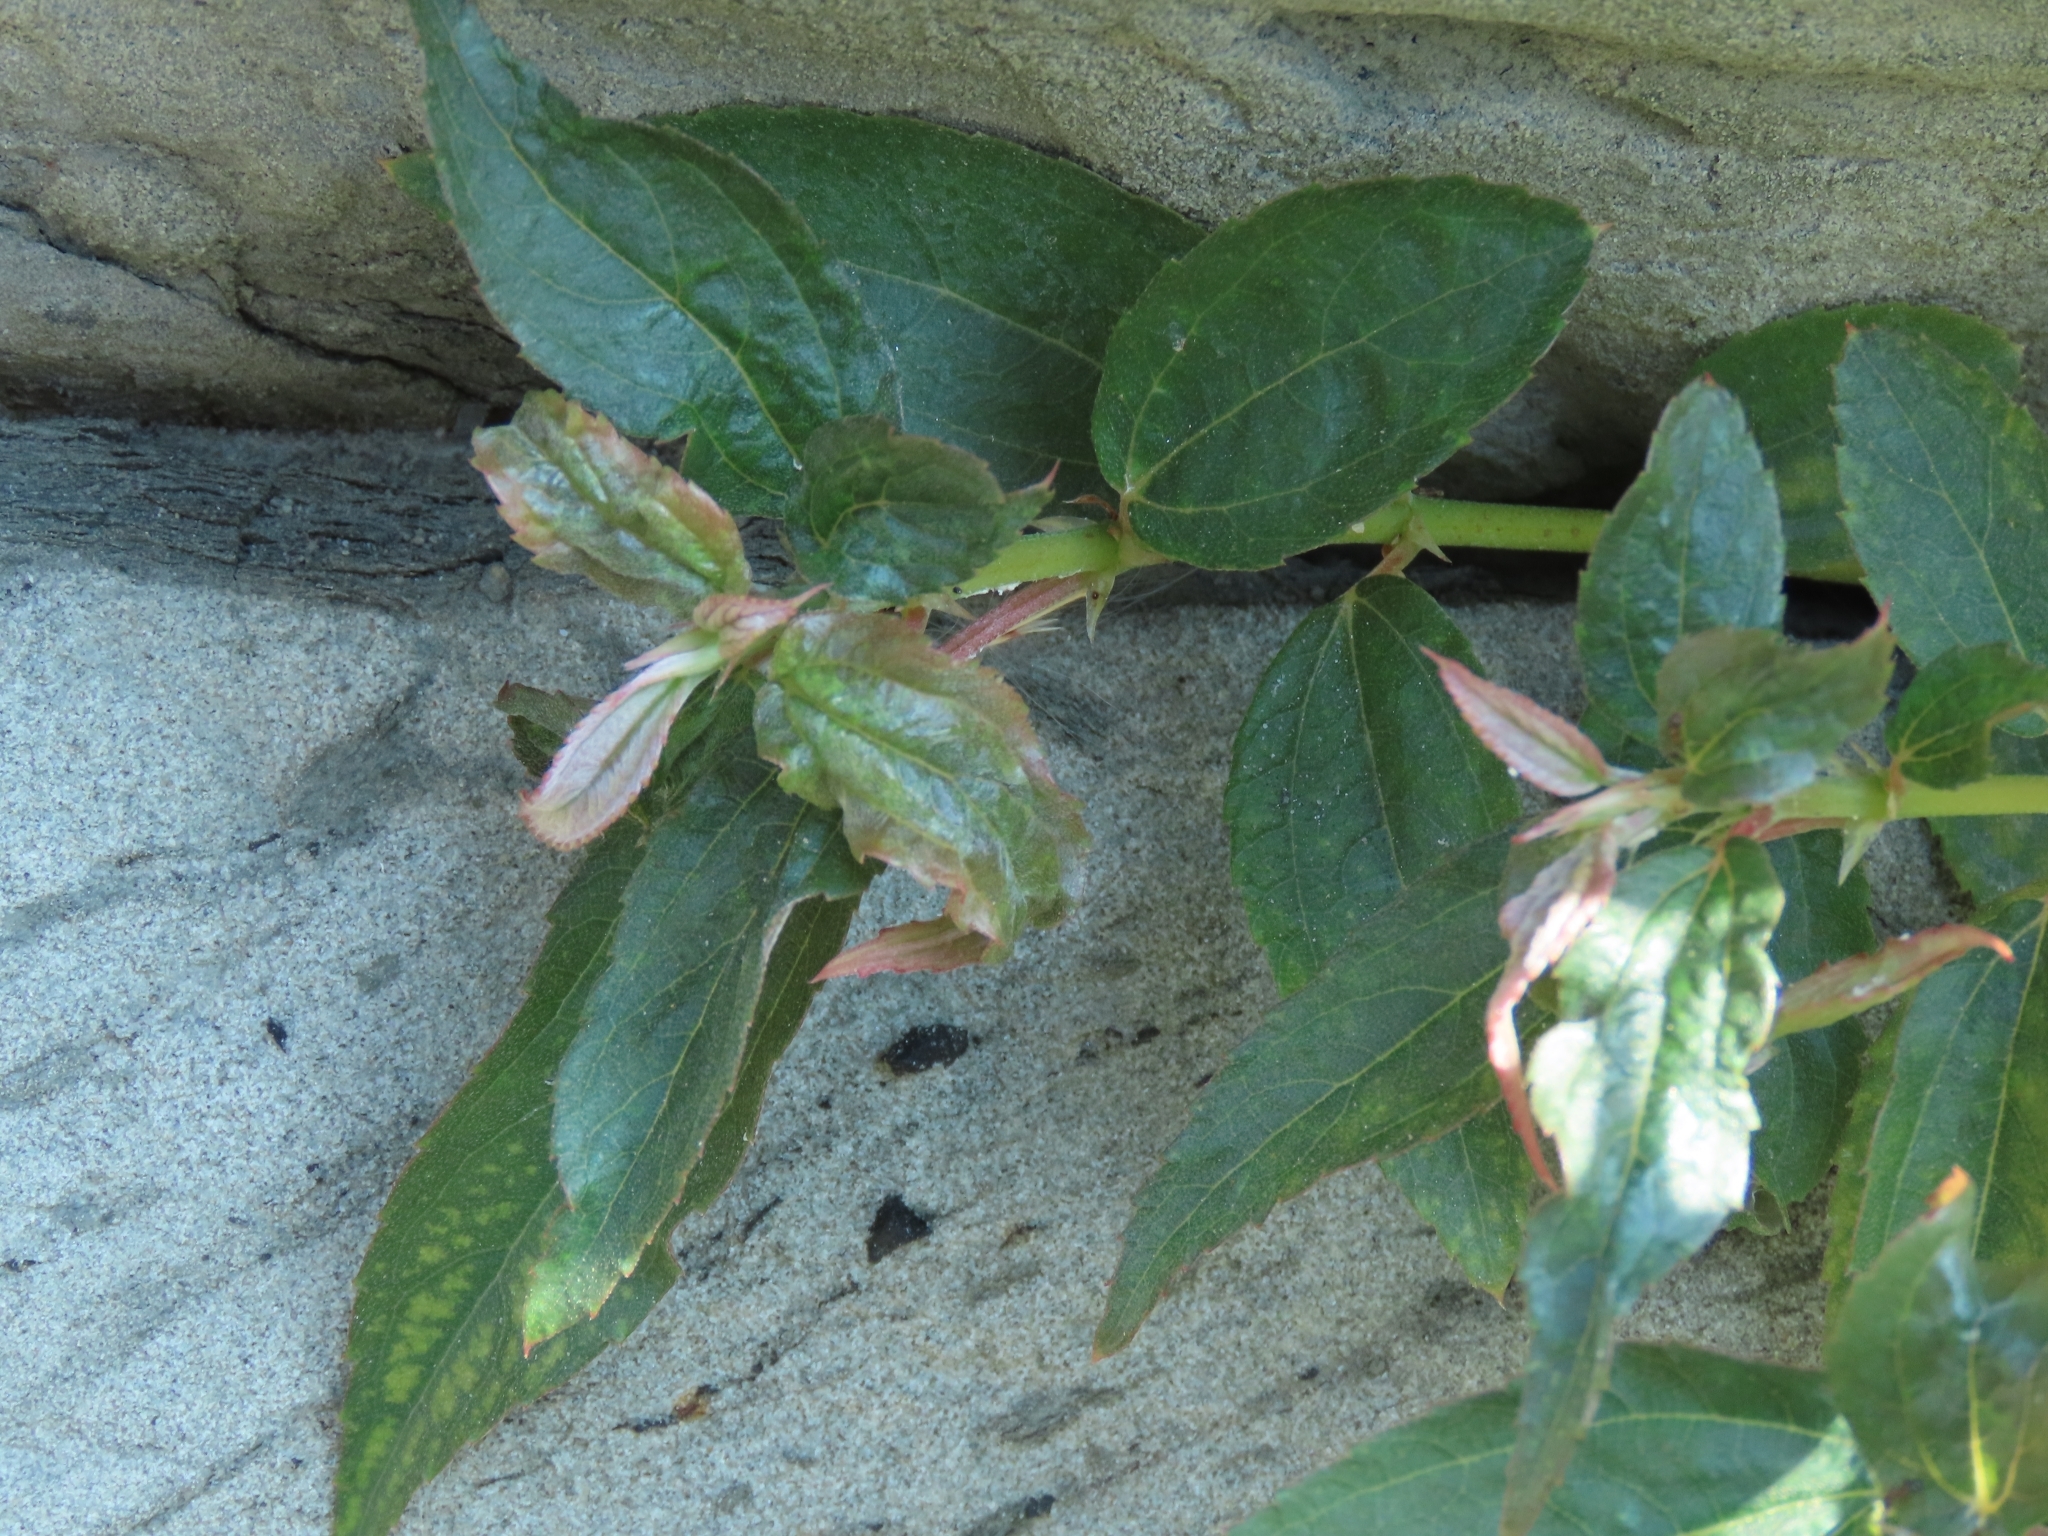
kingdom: Plantae
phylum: Tracheophyta
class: Magnoliopsida
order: Rosales
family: Urticaceae
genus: Boehmeria
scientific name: Boehmeria densiflora
